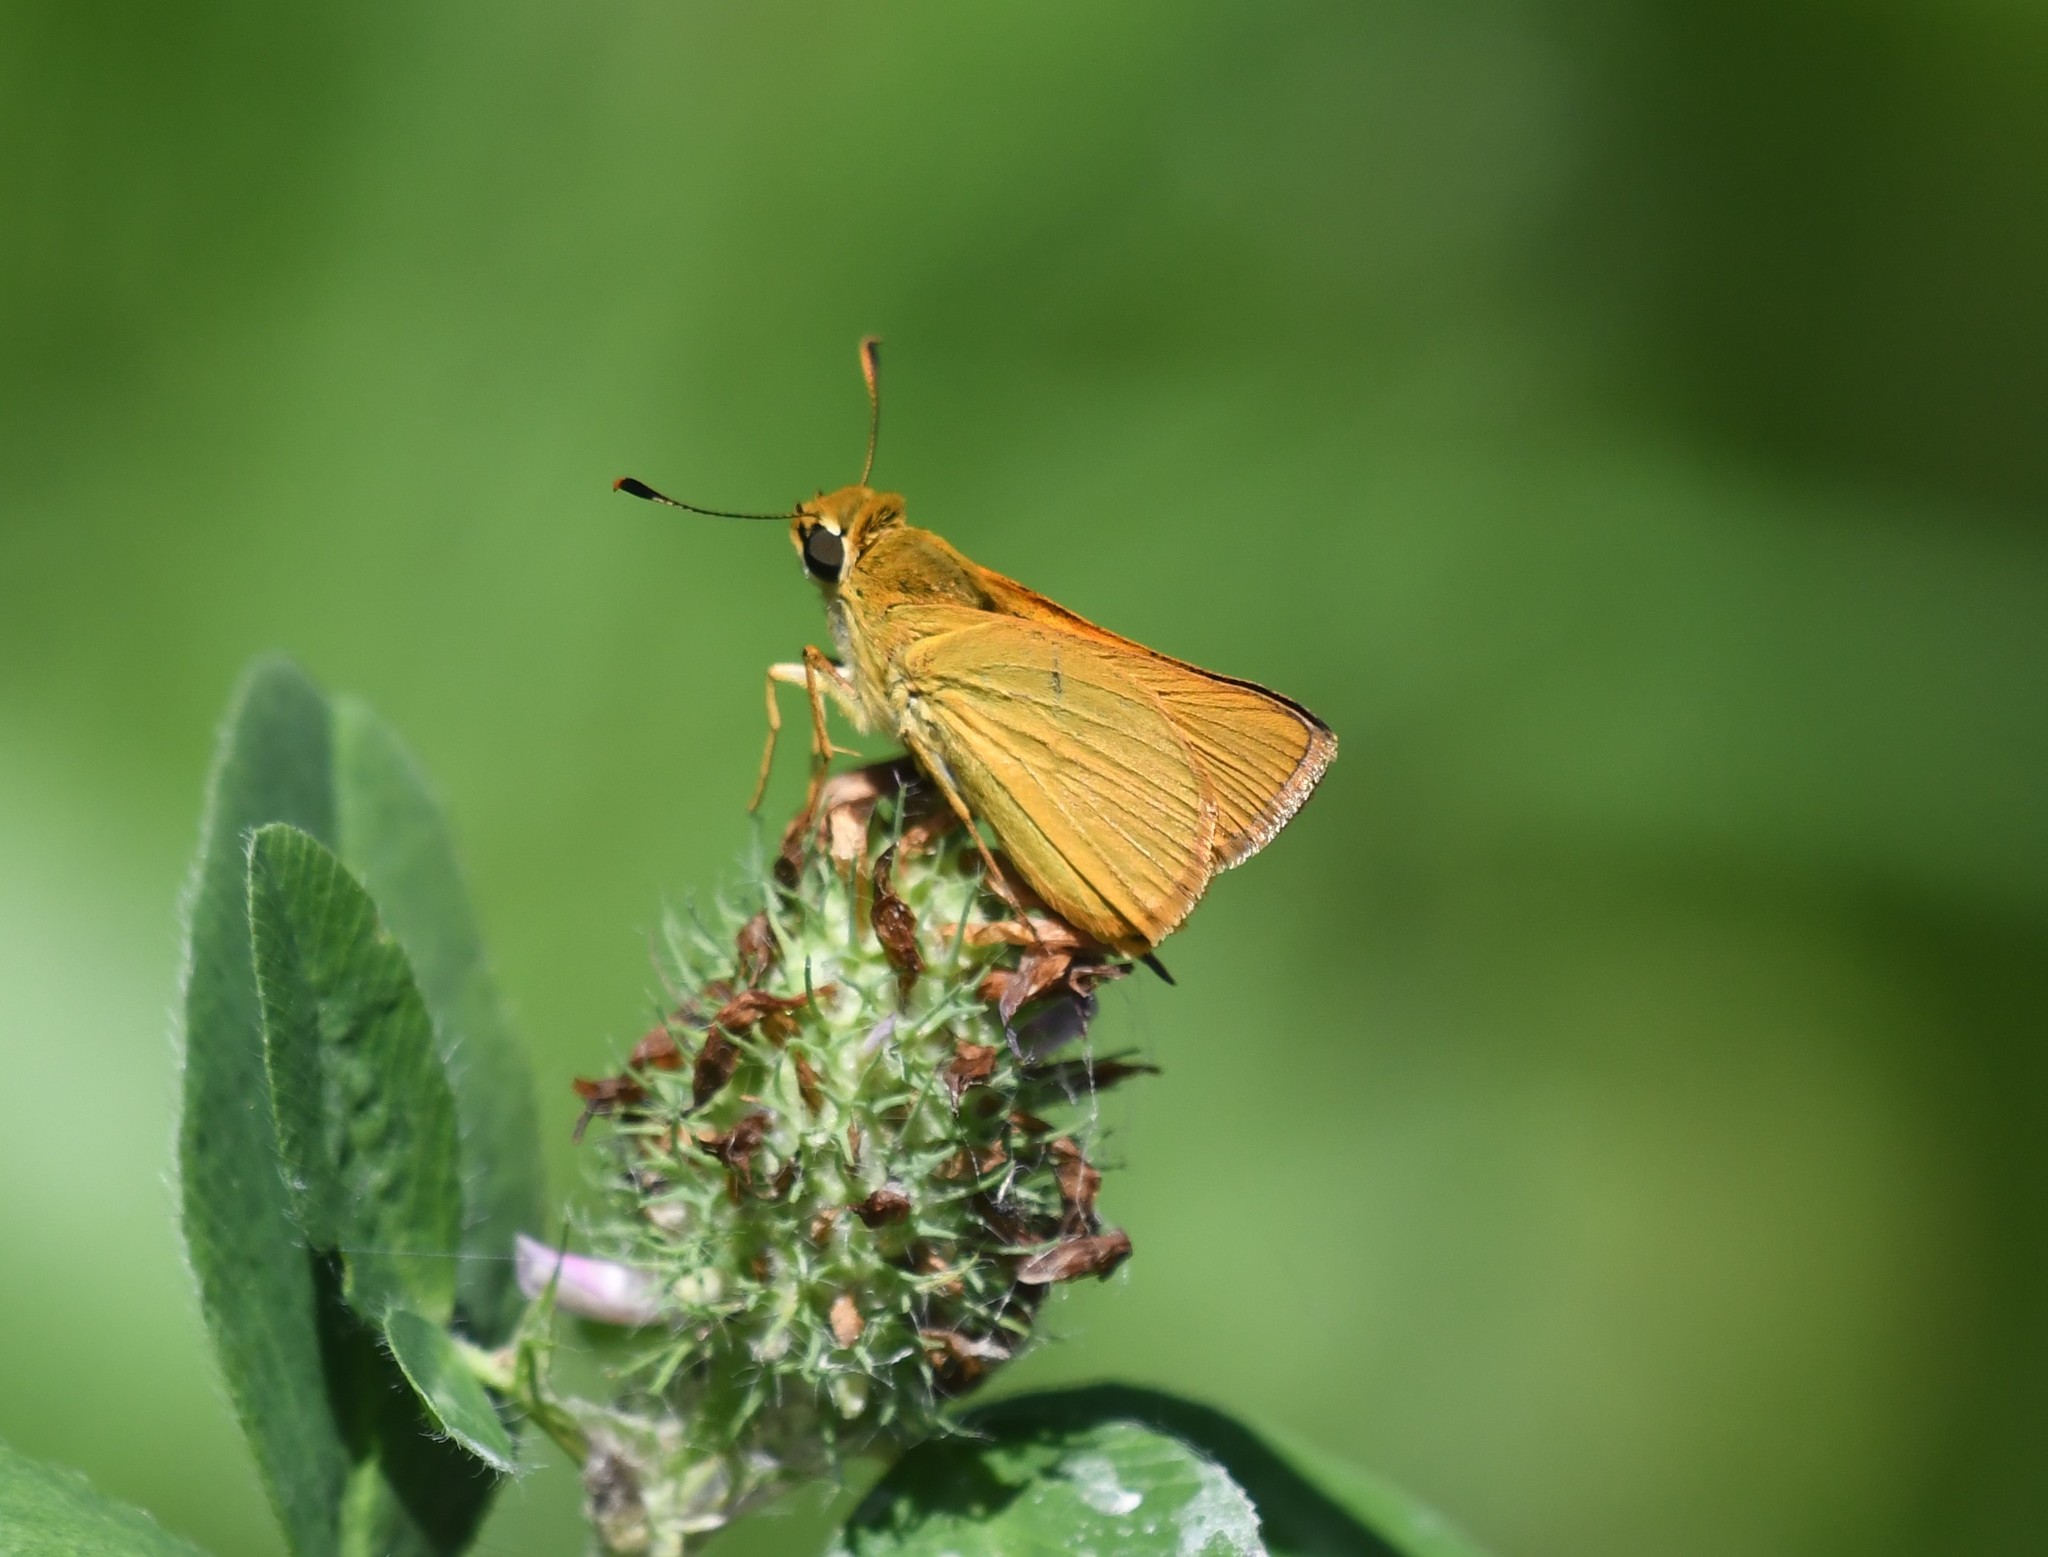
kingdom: Animalia
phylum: Arthropoda
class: Insecta
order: Lepidoptera
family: Hesperiidae
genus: Atrytone
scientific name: Atrytone delaware
